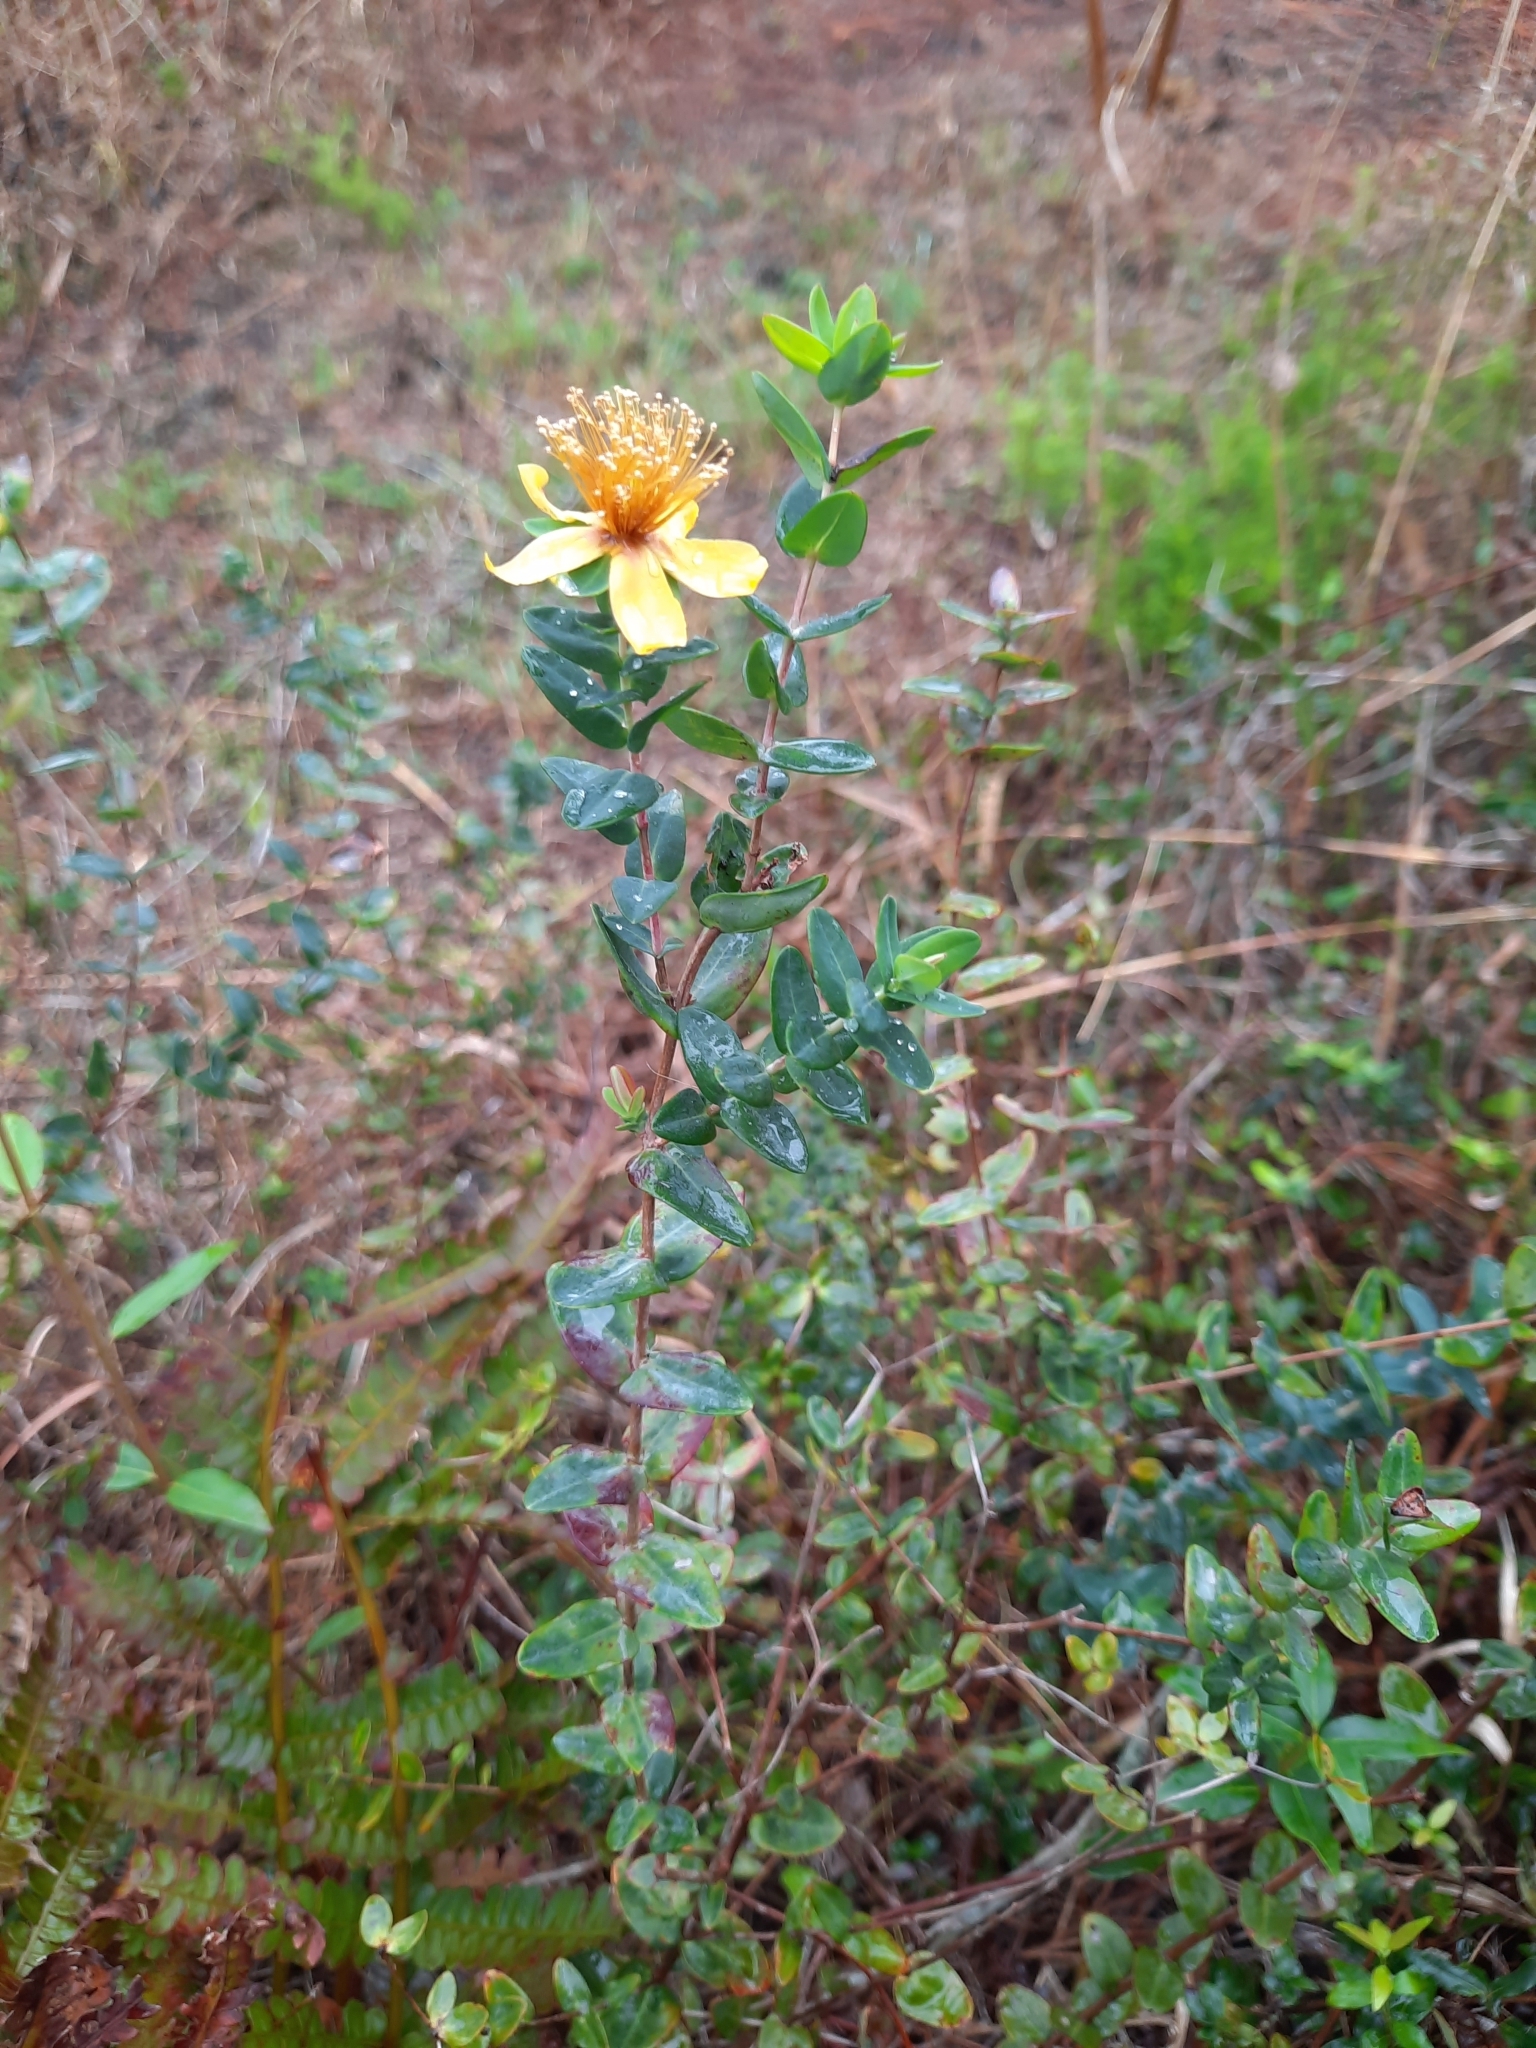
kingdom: Plantae
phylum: Tracheophyta
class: Magnoliopsida
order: Malpighiales
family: Hypericaceae
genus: Hypericum
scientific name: Hypericum myrtifolium
